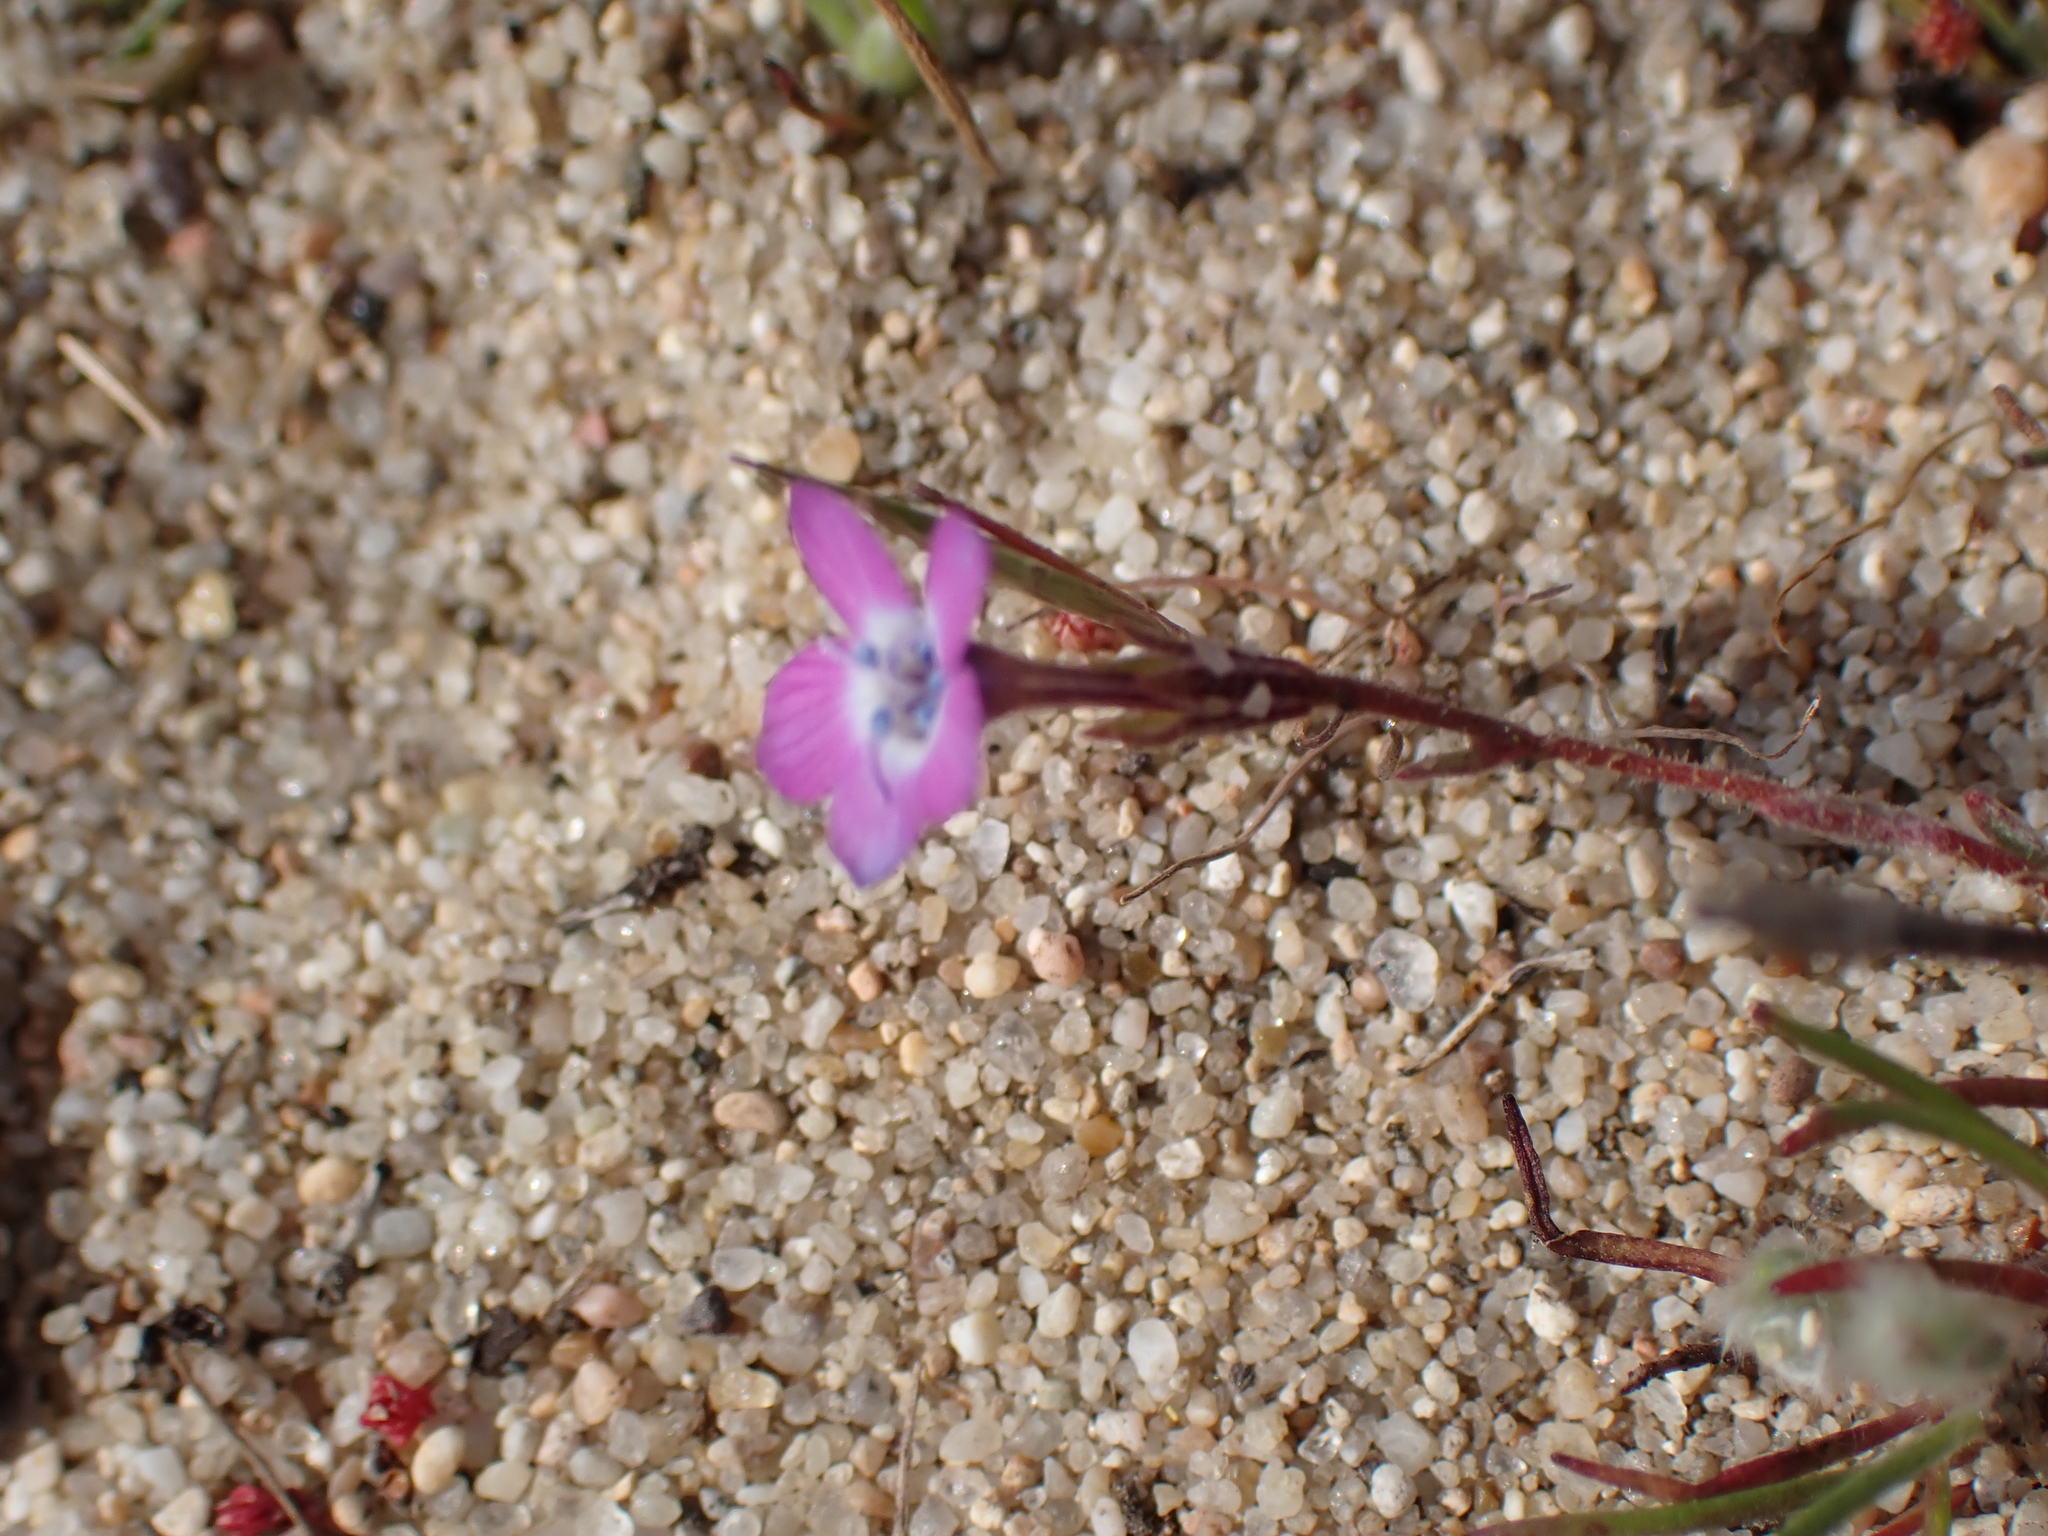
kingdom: Plantae
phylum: Tracheophyta
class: Magnoliopsida
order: Ericales
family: Polemoniaceae
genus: Gilia
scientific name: Gilia tenuiflora
